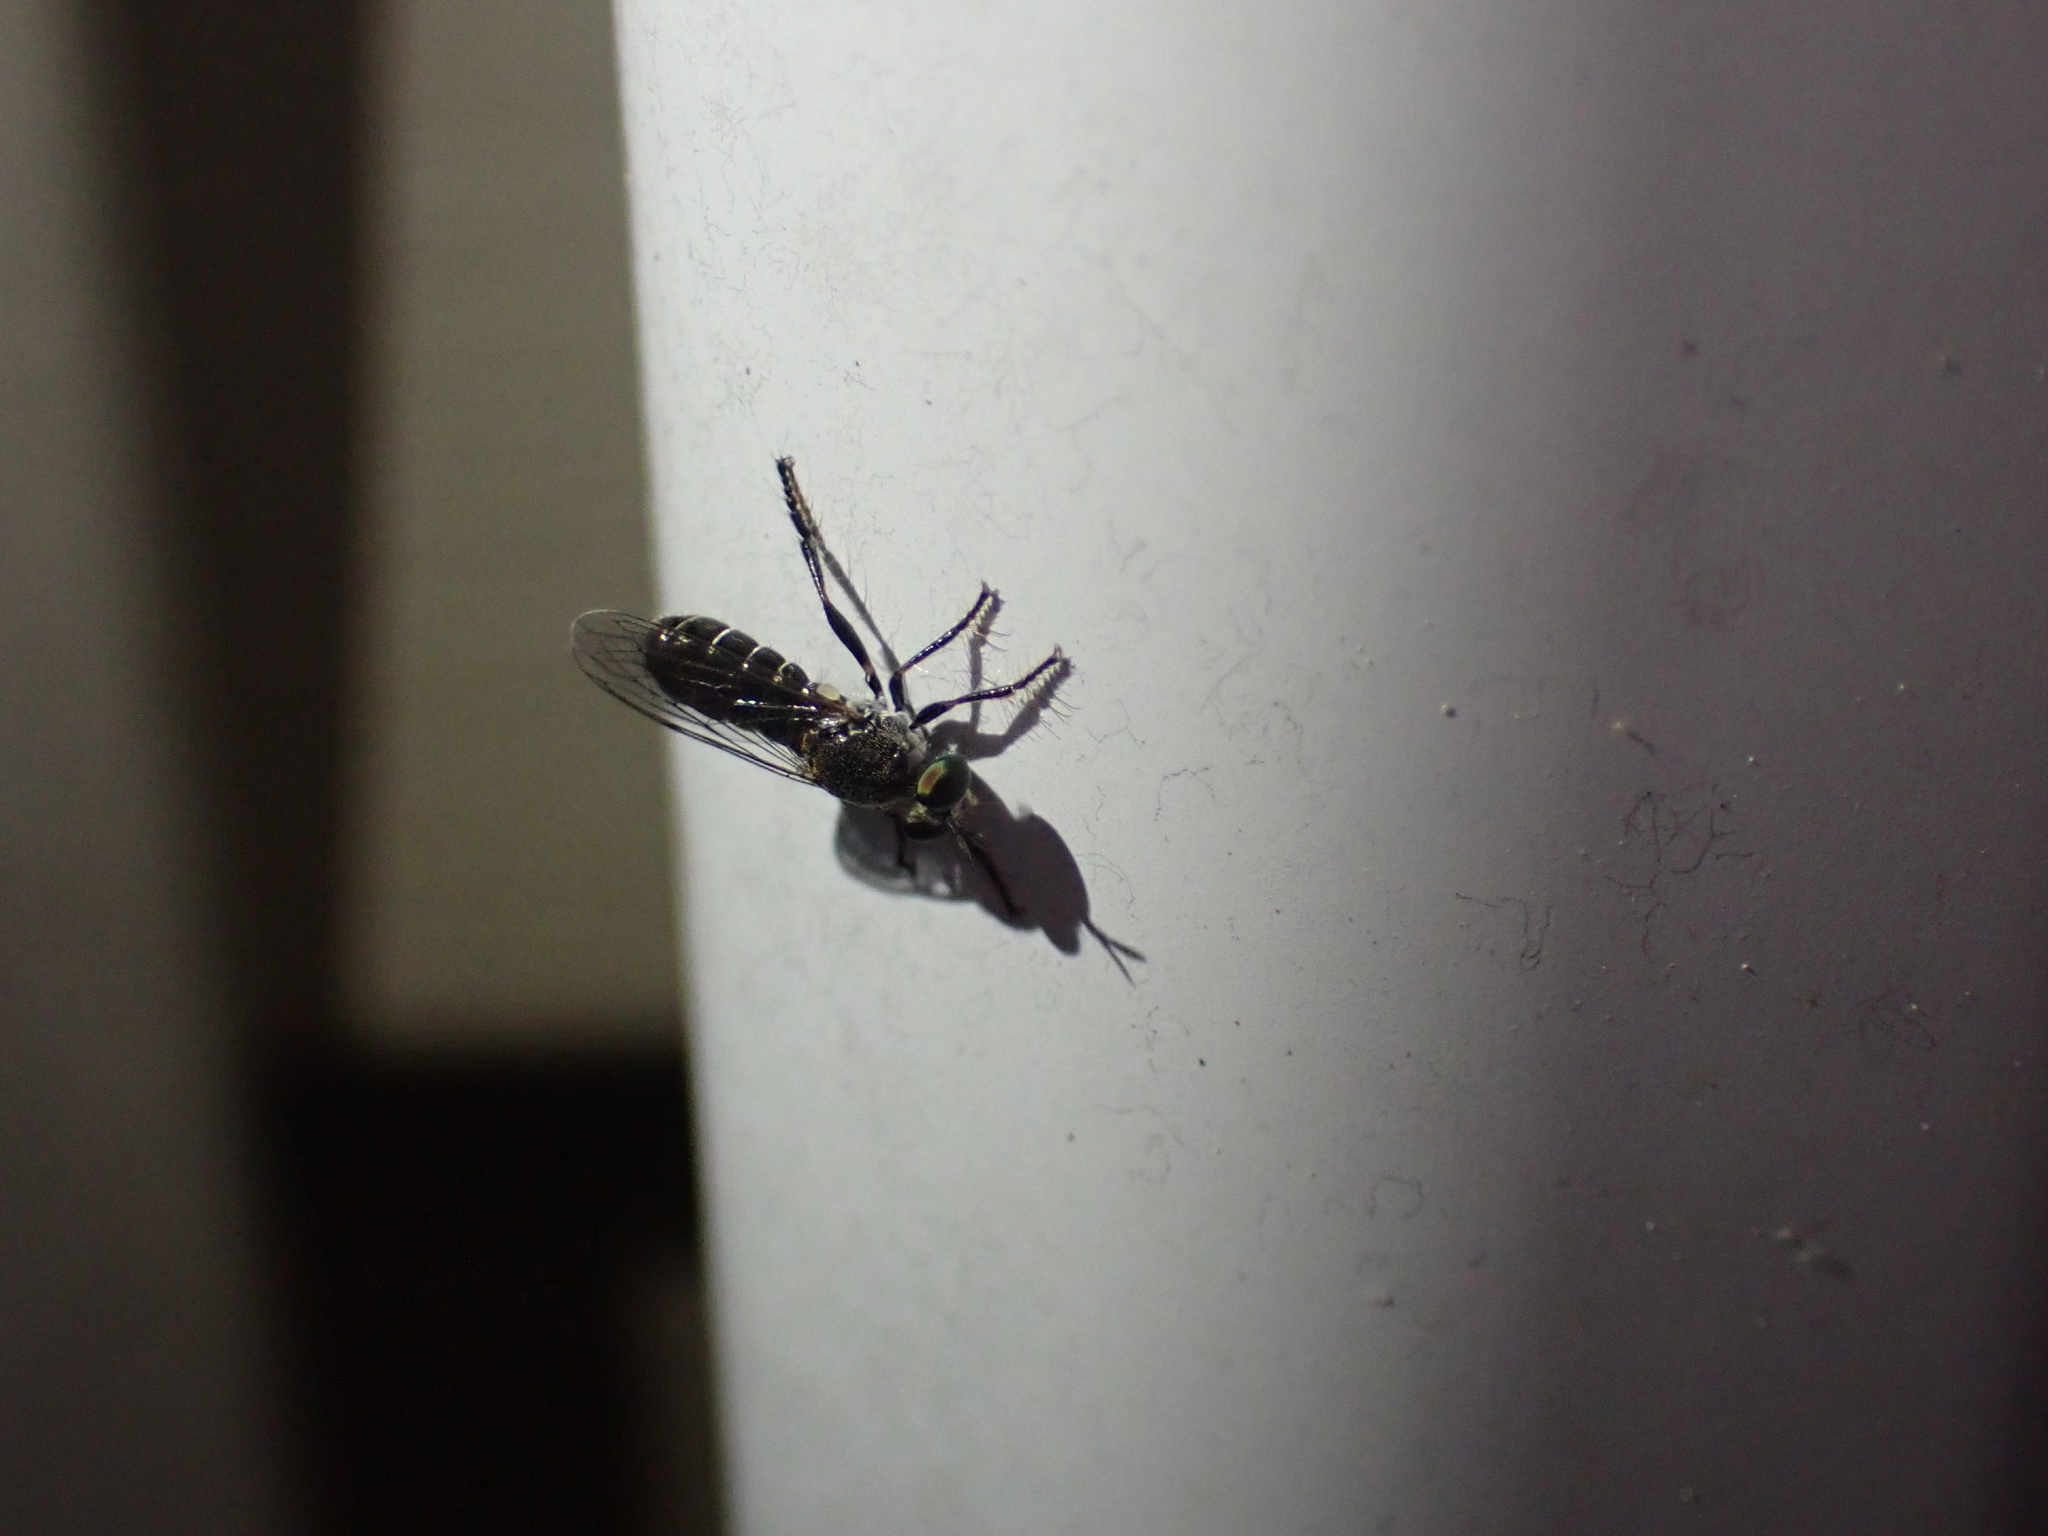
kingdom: Animalia
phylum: Arthropoda
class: Insecta
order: Diptera
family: Asilidae
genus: Atomosia
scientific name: Atomosia puella
